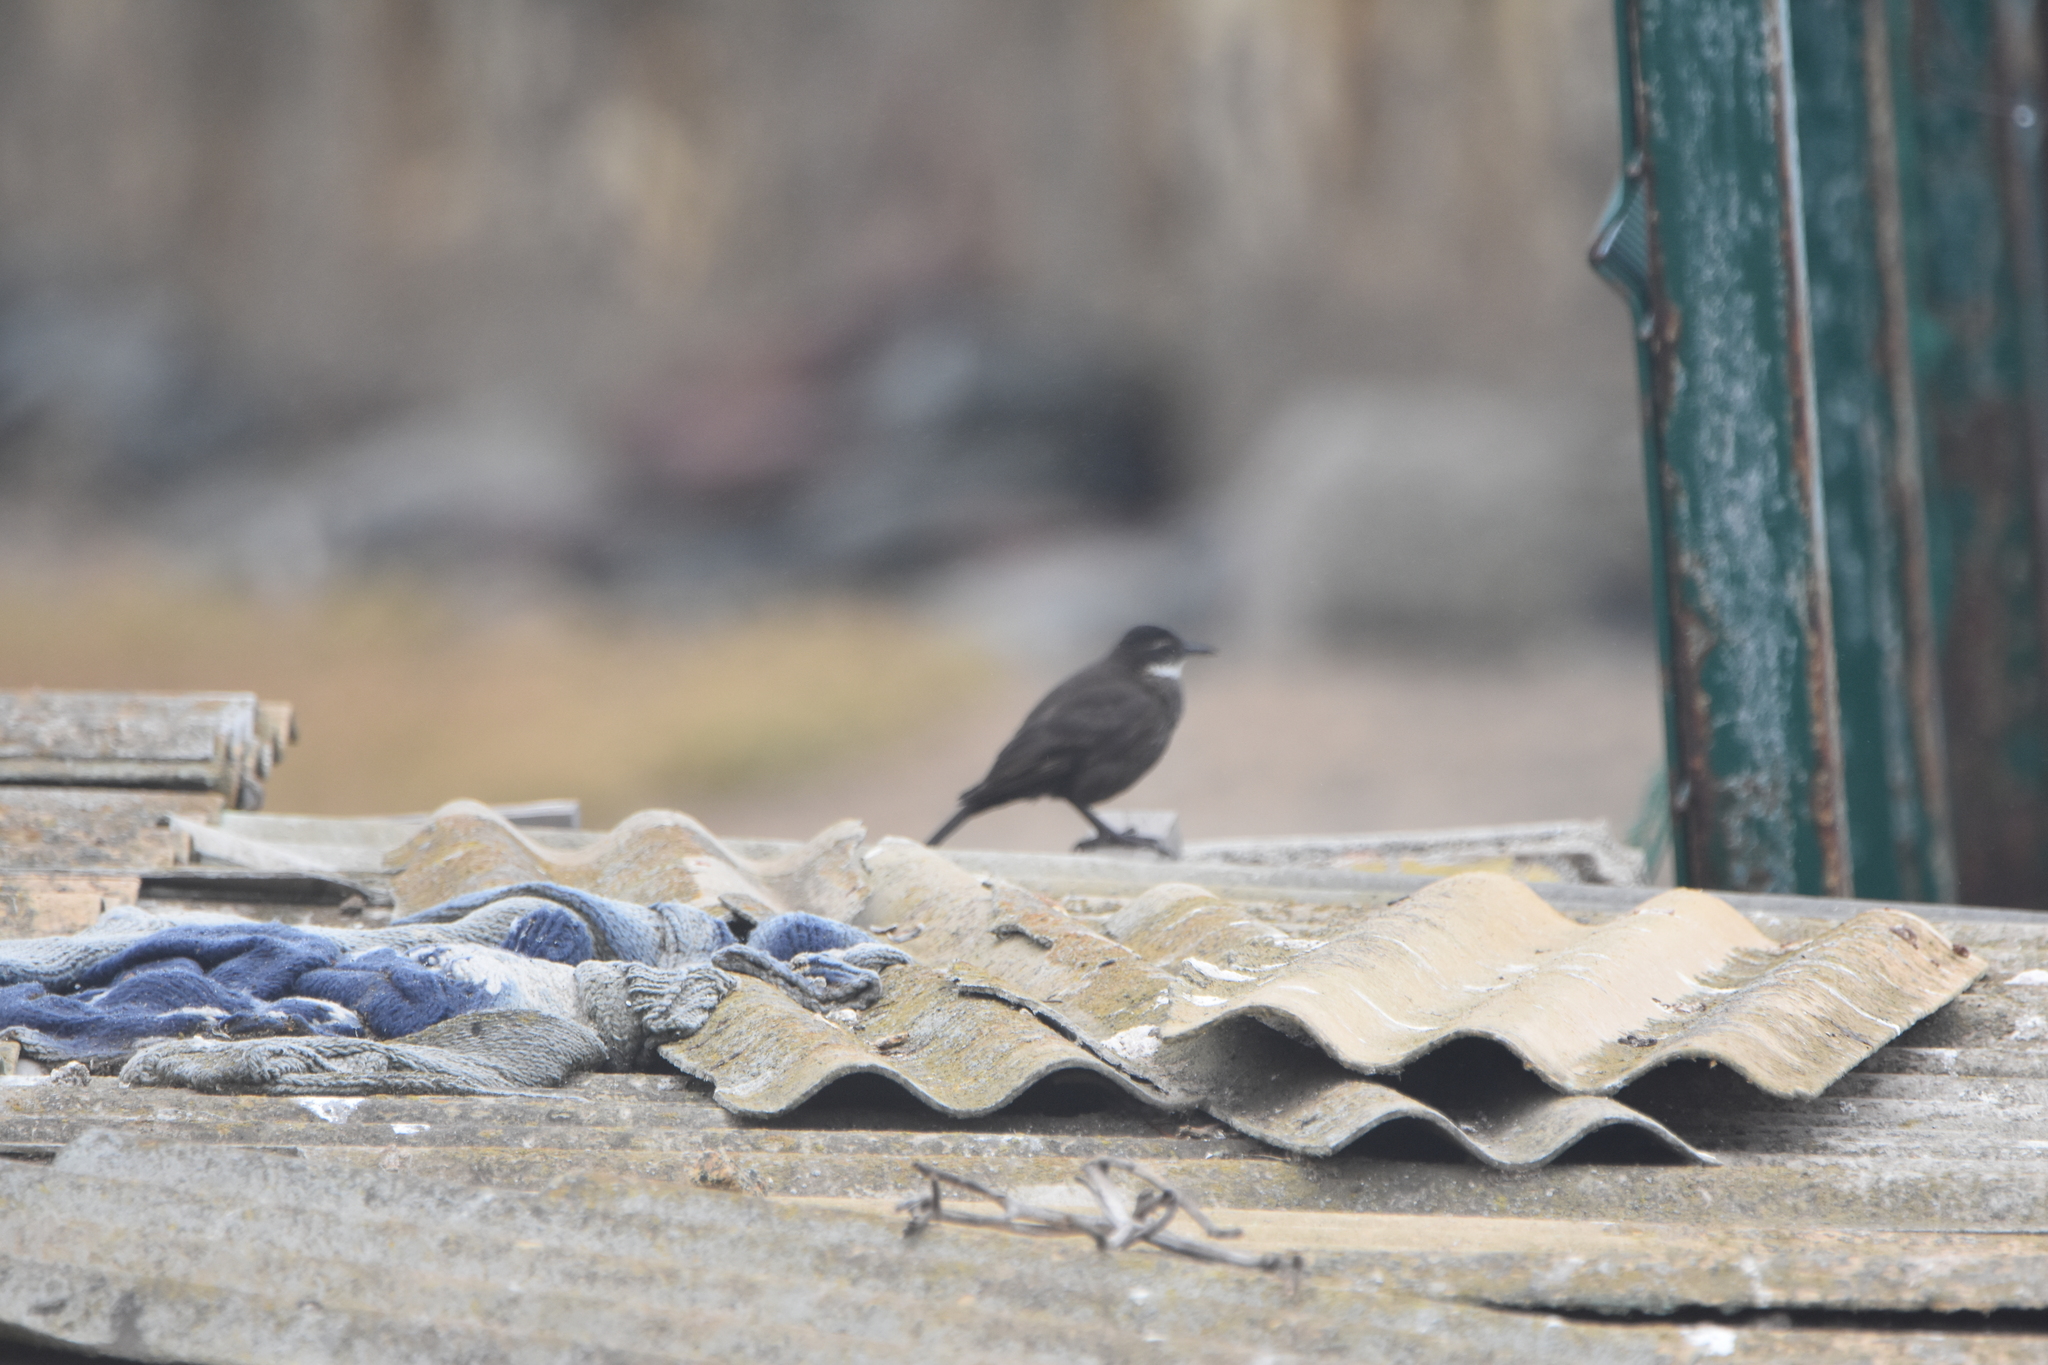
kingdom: Animalia
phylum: Chordata
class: Aves
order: Passeriformes
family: Furnariidae
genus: Cinclodes
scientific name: Cinclodes nigrofumosus
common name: Chilean seaside cinclodes
